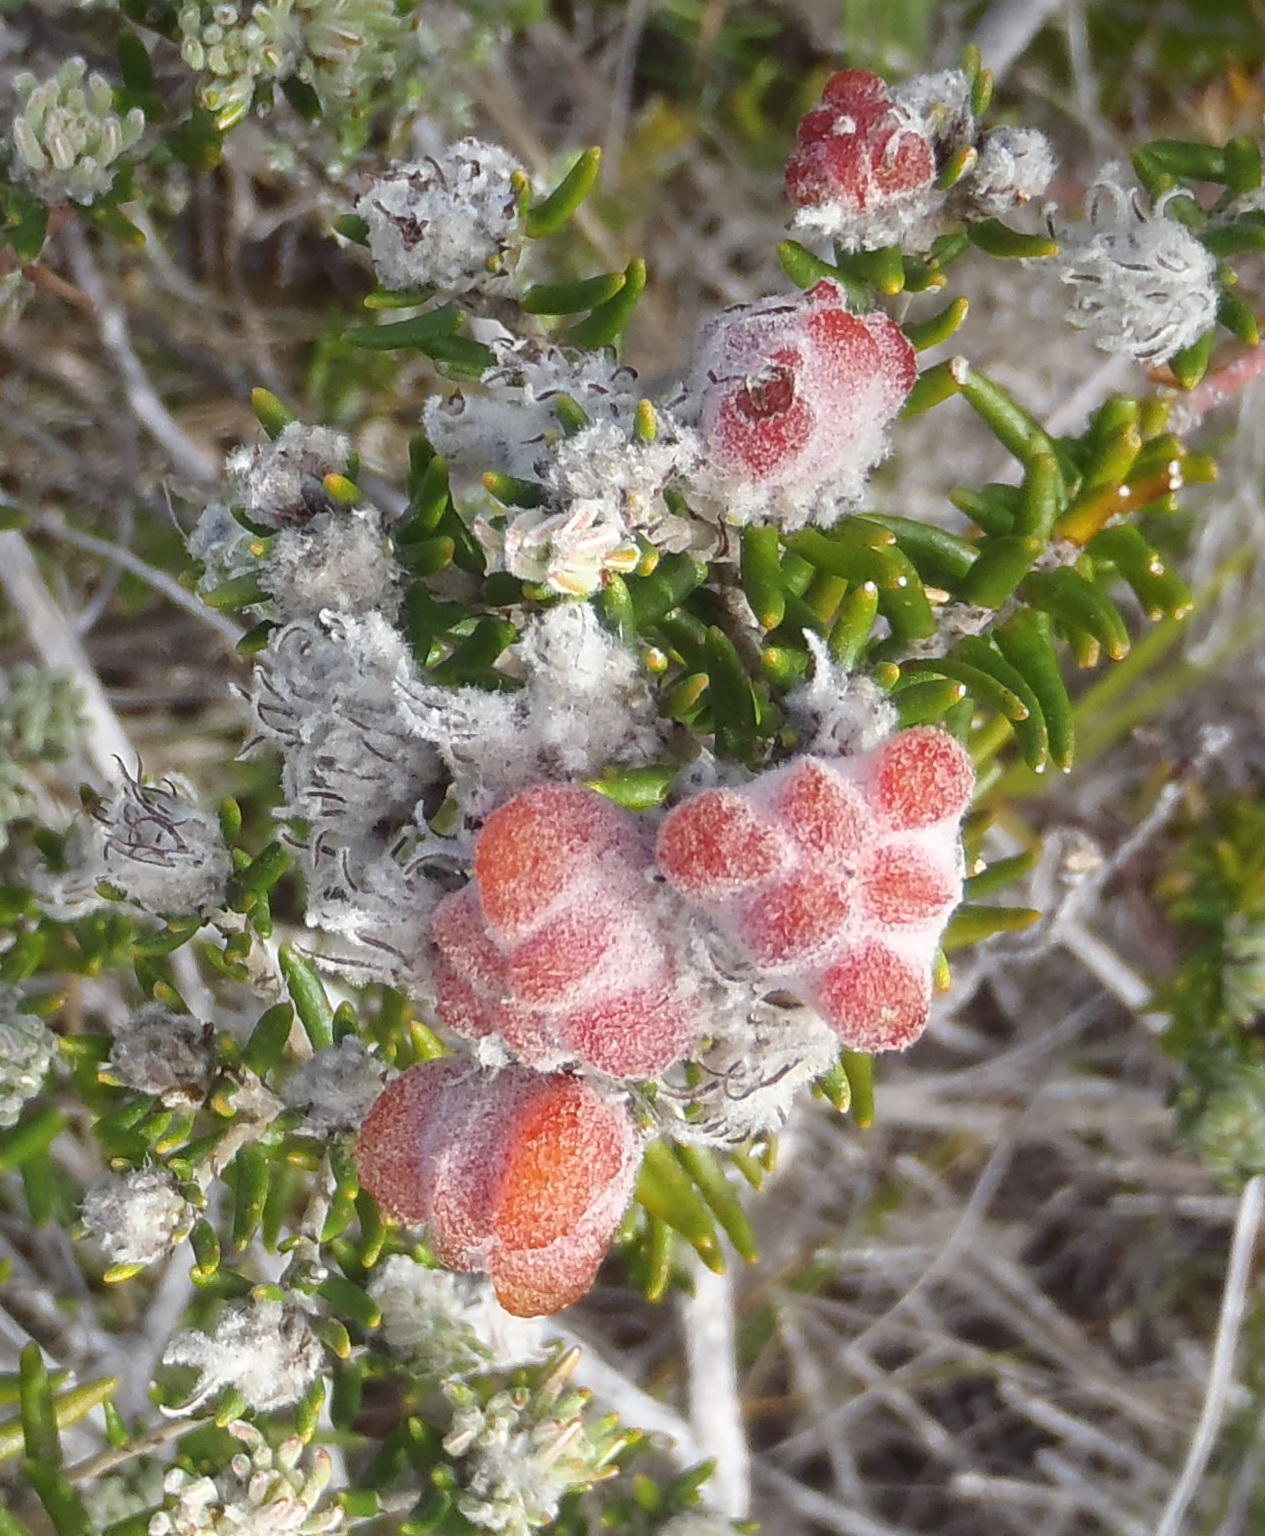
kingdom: Plantae
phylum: Tracheophyta
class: Magnoliopsida
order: Rosales
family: Rhamnaceae
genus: Trichocephalus
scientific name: Trichocephalus stipularis
